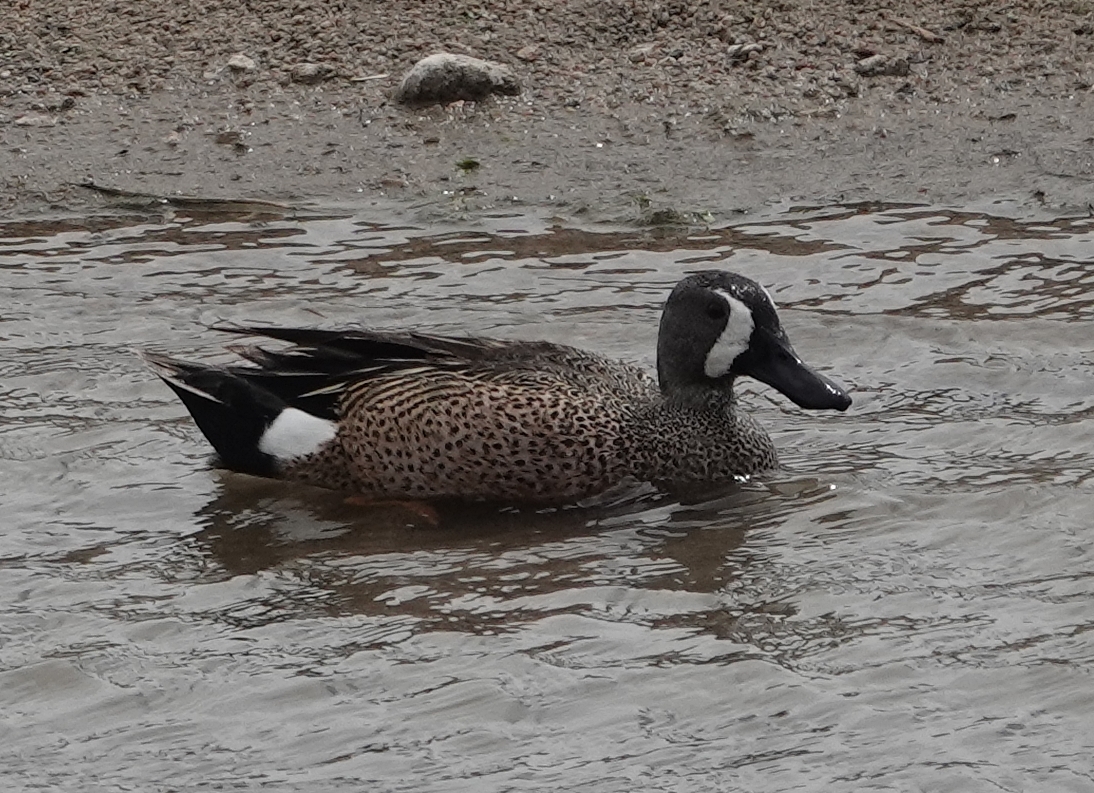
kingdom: Animalia
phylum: Chordata
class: Aves
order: Anseriformes
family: Anatidae
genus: Spatula
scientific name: Spatula discors
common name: Blue-winged teal
